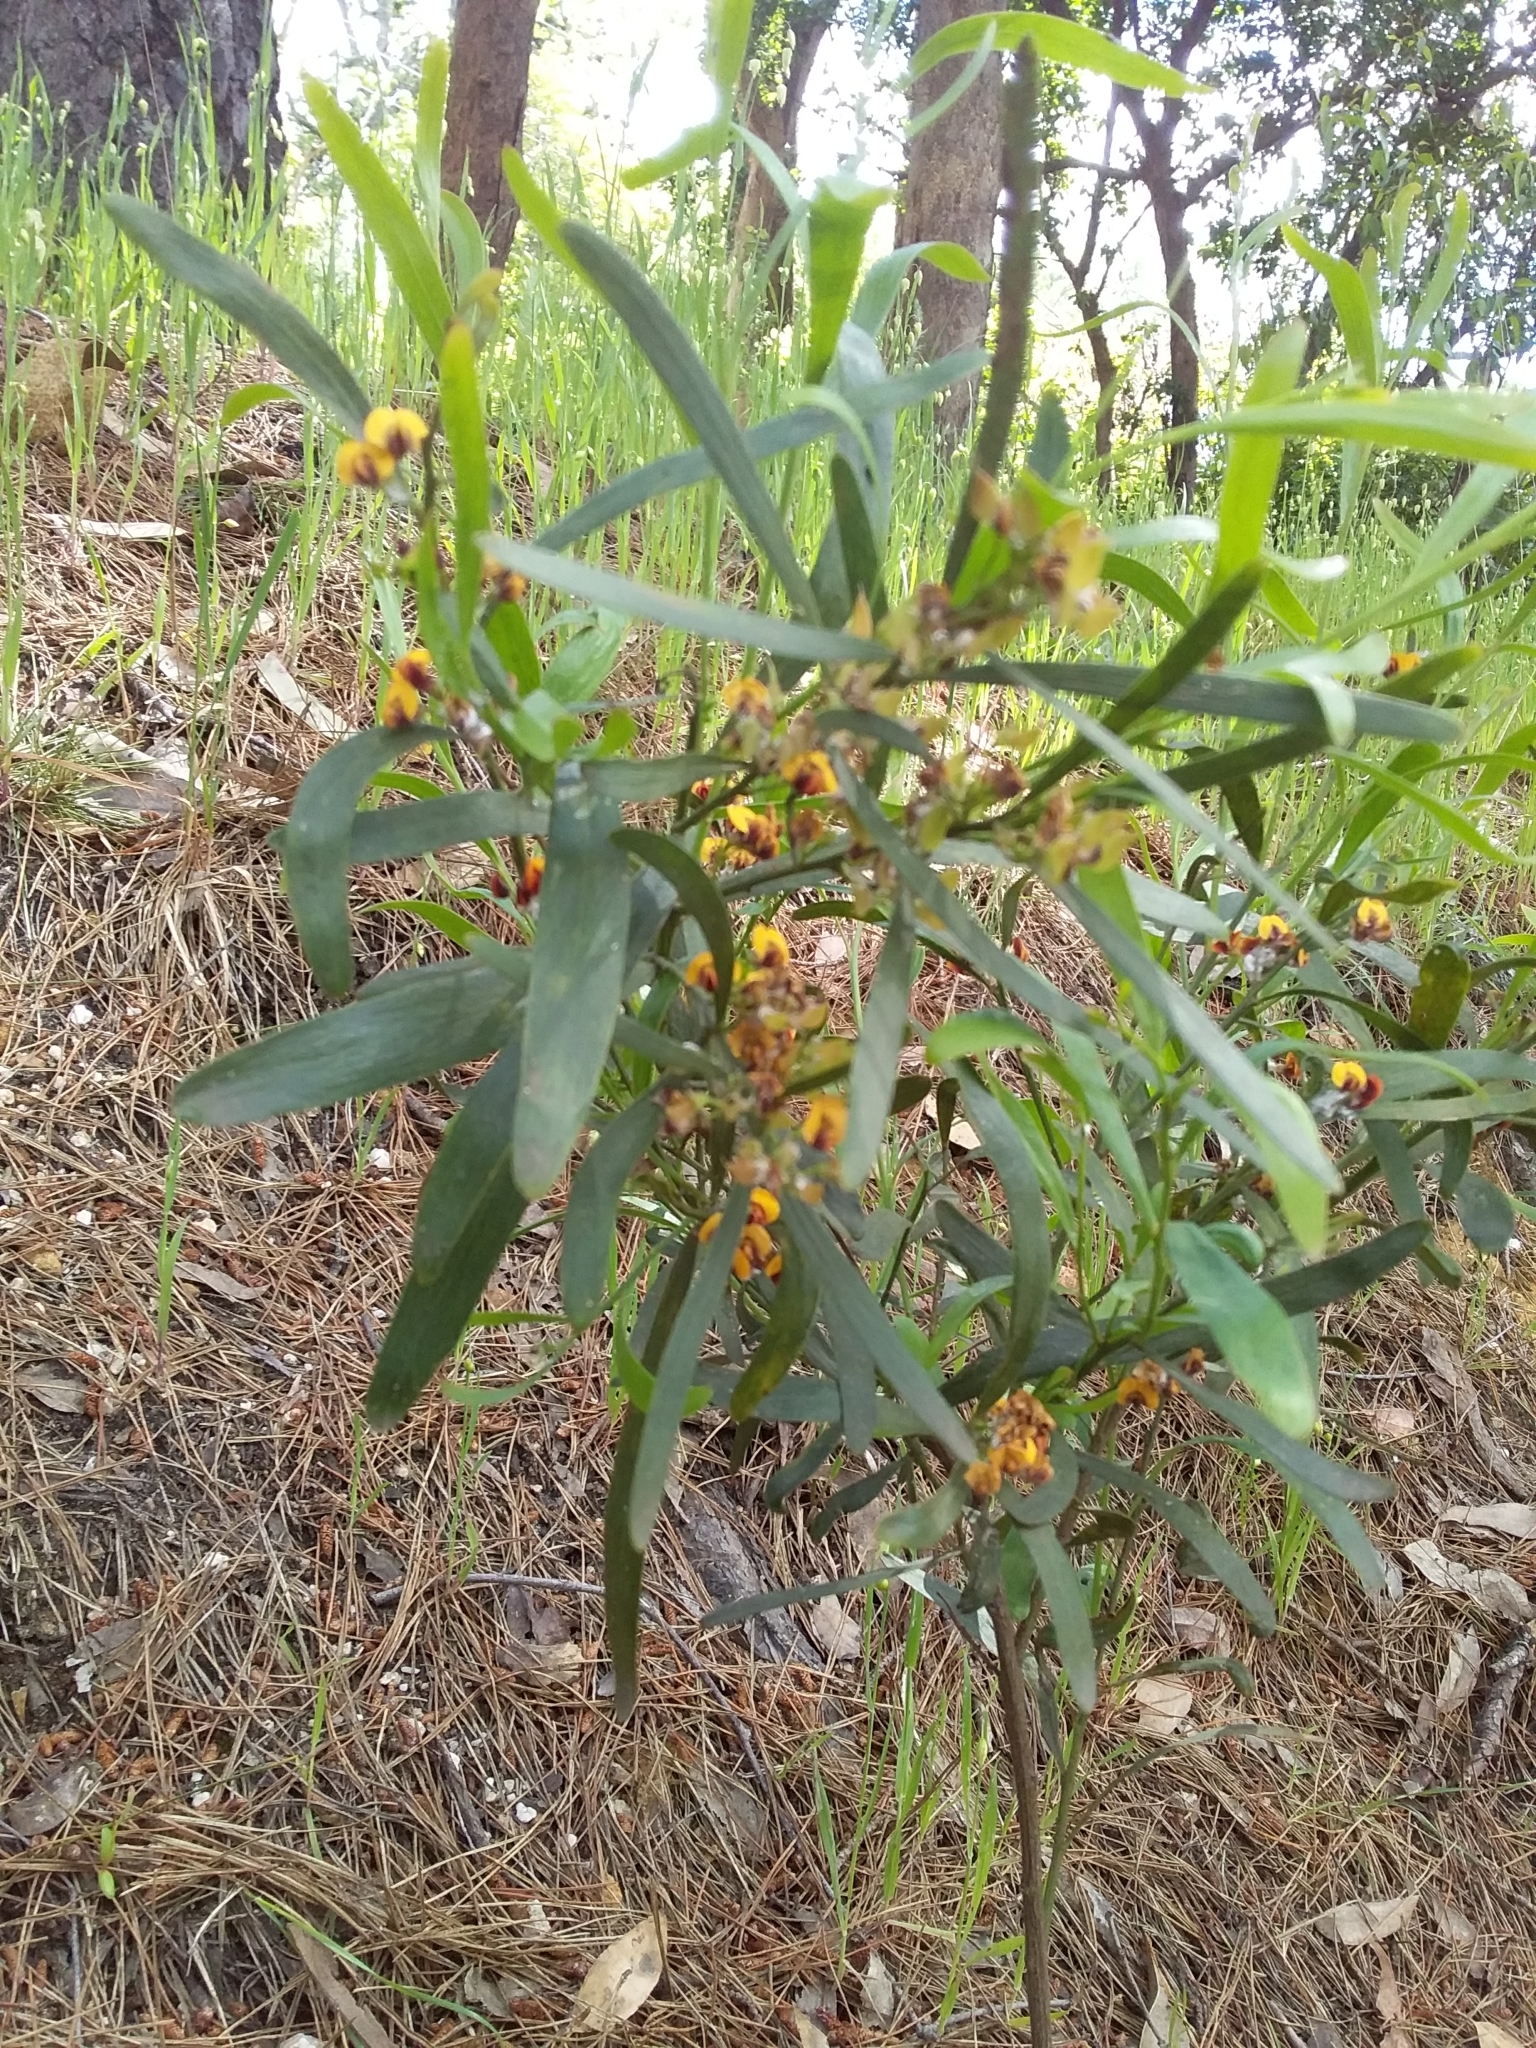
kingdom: Plantae
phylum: Tracheophyta
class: Magnoliopsida
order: Fabales
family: Fabaceae
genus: Daviesia
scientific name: Daviesia leptophylla
